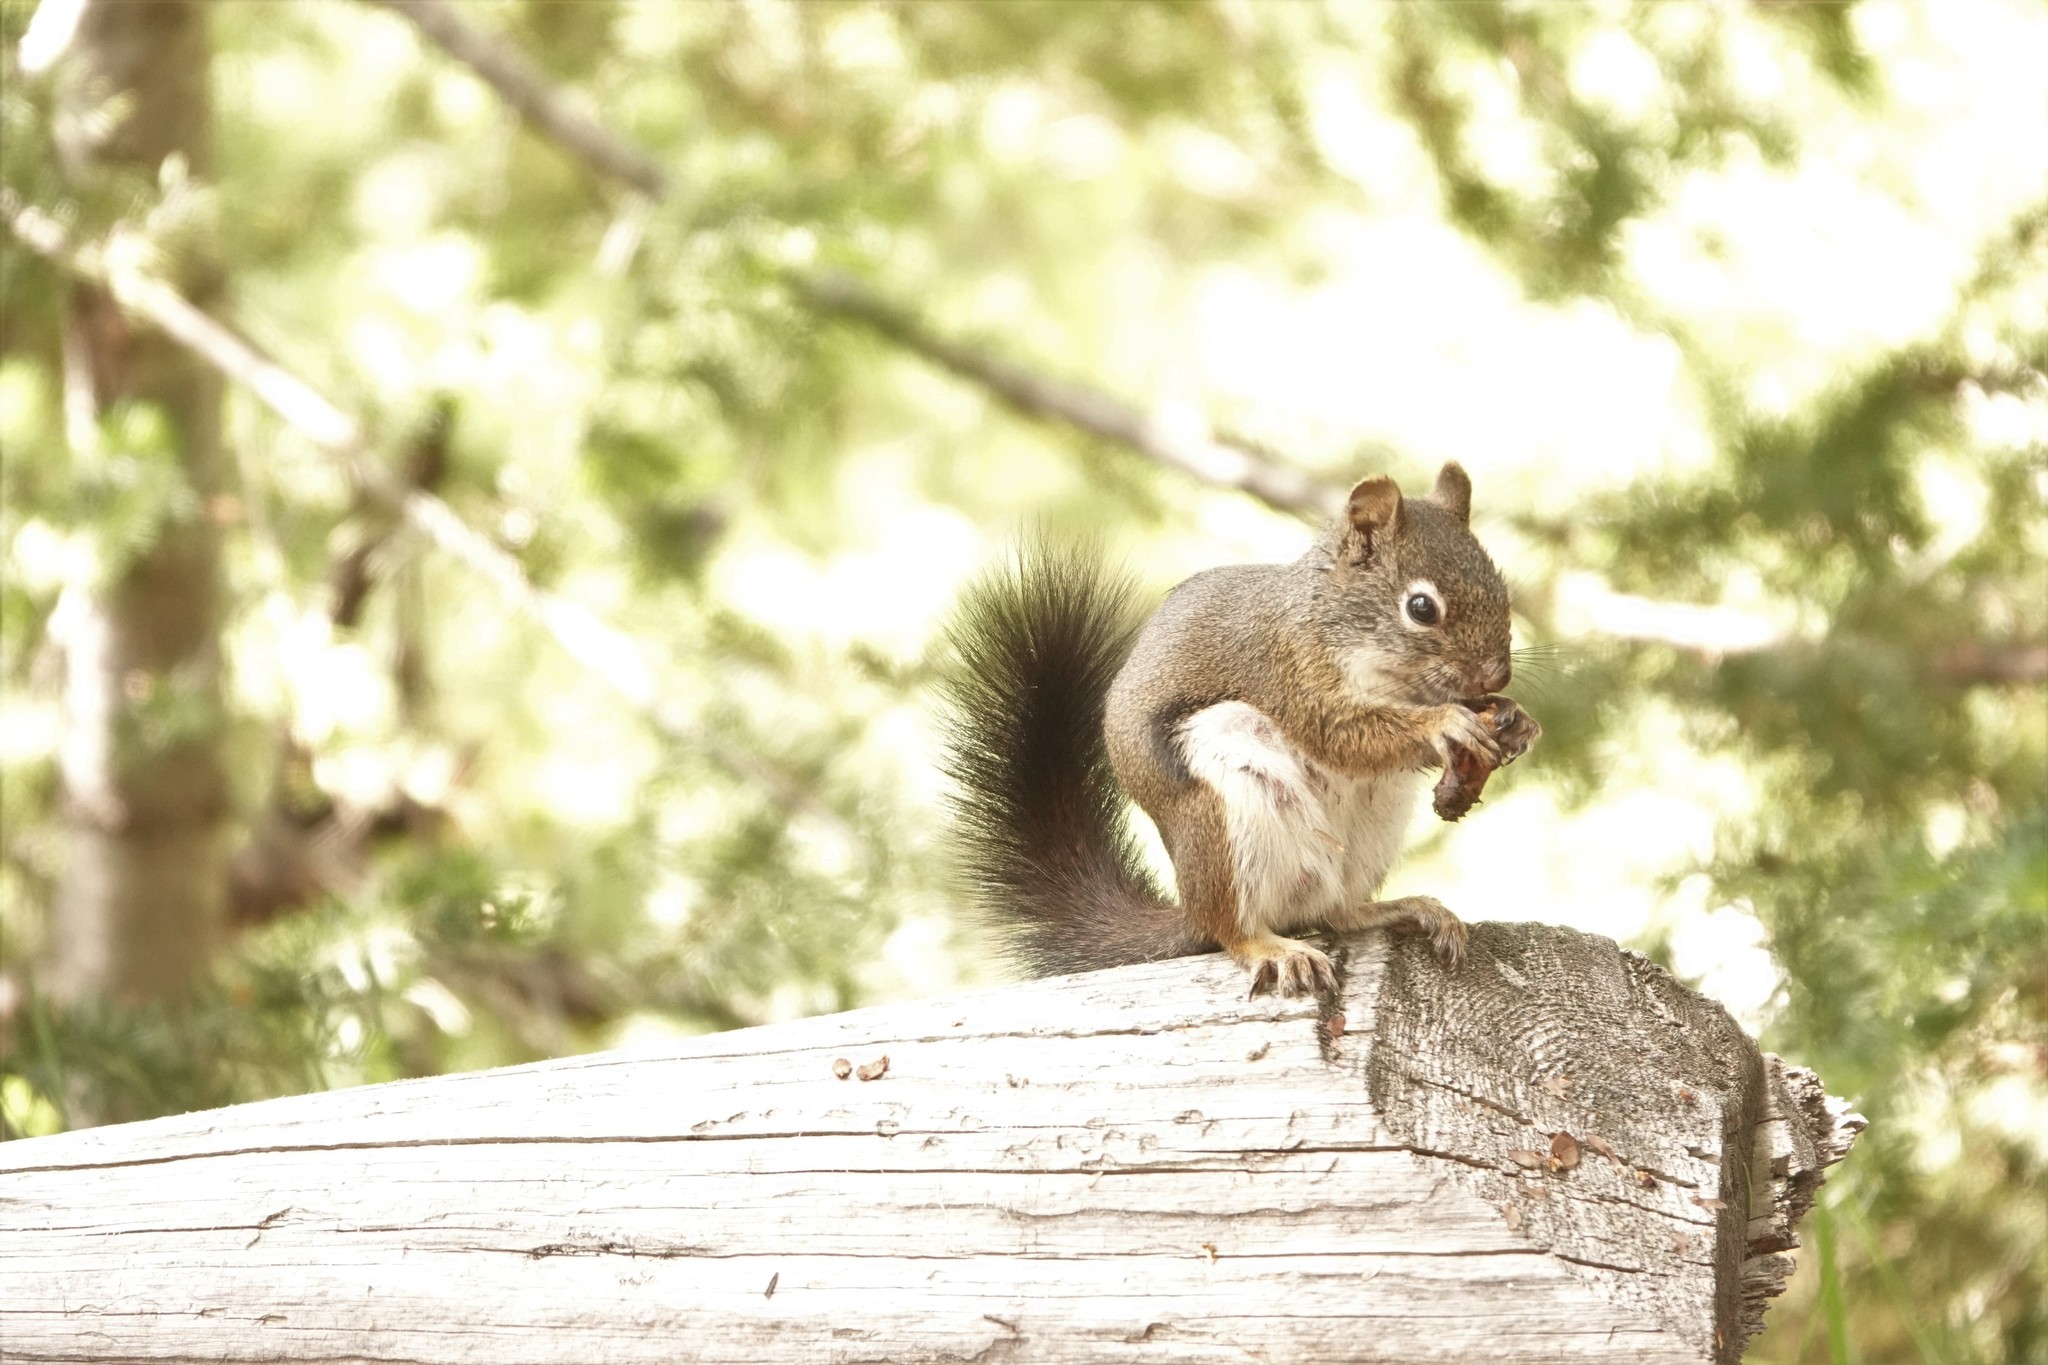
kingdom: Animalia
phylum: Chordata
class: Mammalia
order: Rodentia
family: Sciuridae
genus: Tamiasciurus
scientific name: Tamiasciurus hudsonicus
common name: Red squirrel
